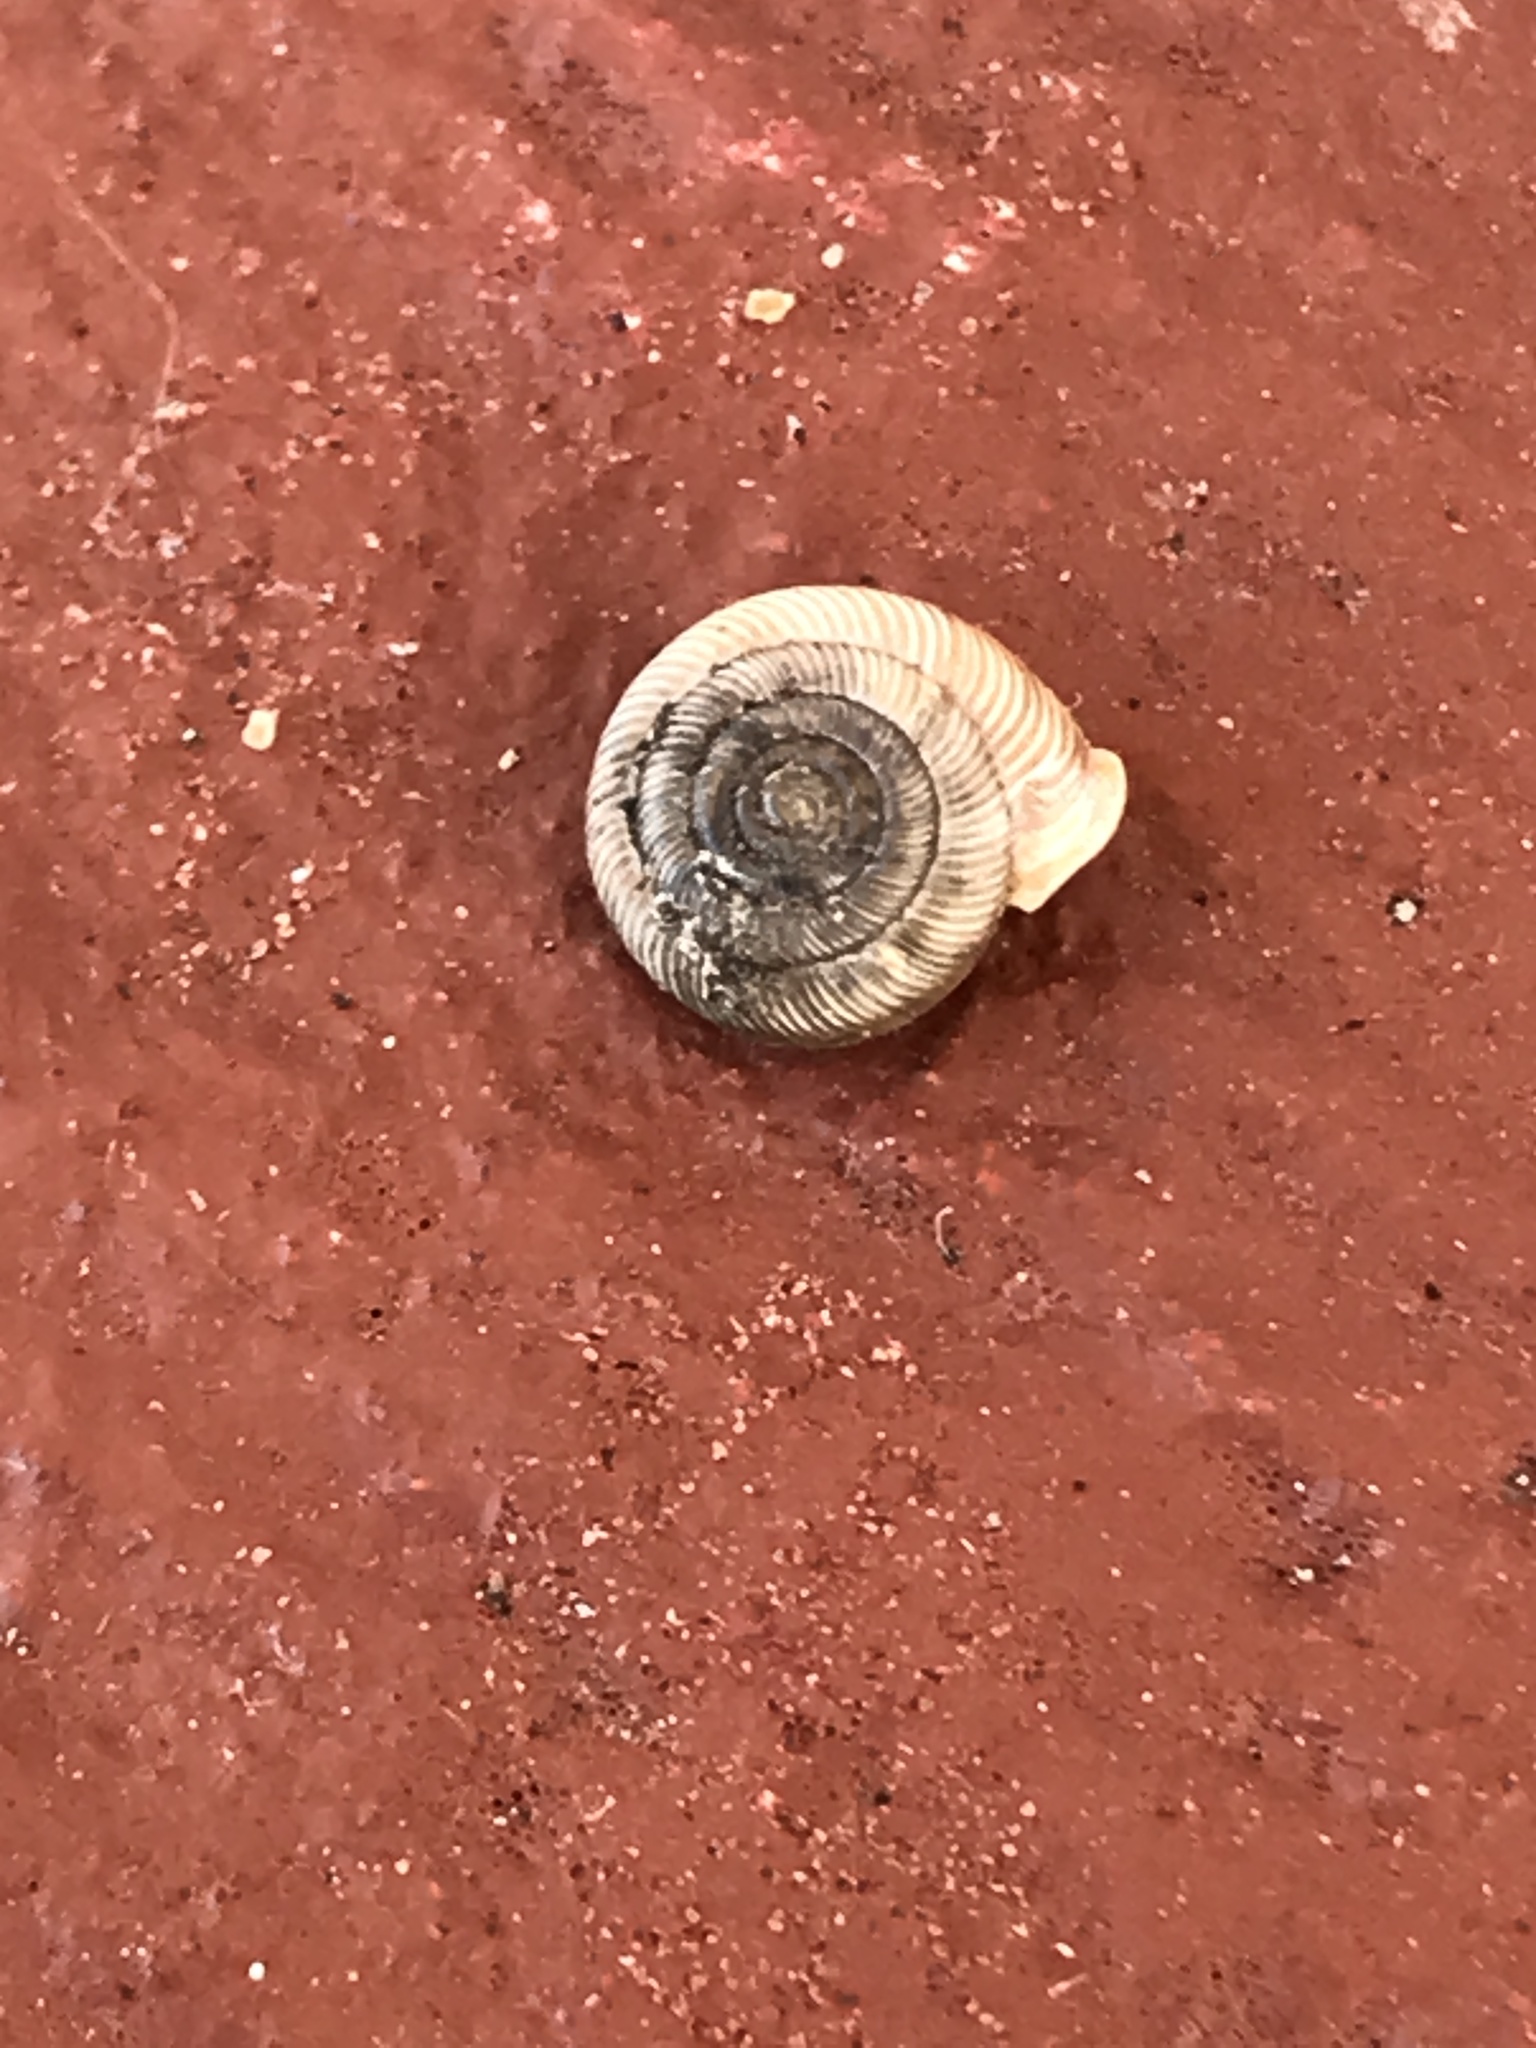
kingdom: Animalia
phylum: Mollusca
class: Gastropoda
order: Stylommatophora
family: Polygyridae
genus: Polygyra
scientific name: Polygyra cereolus
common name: Southern flatcone snail
